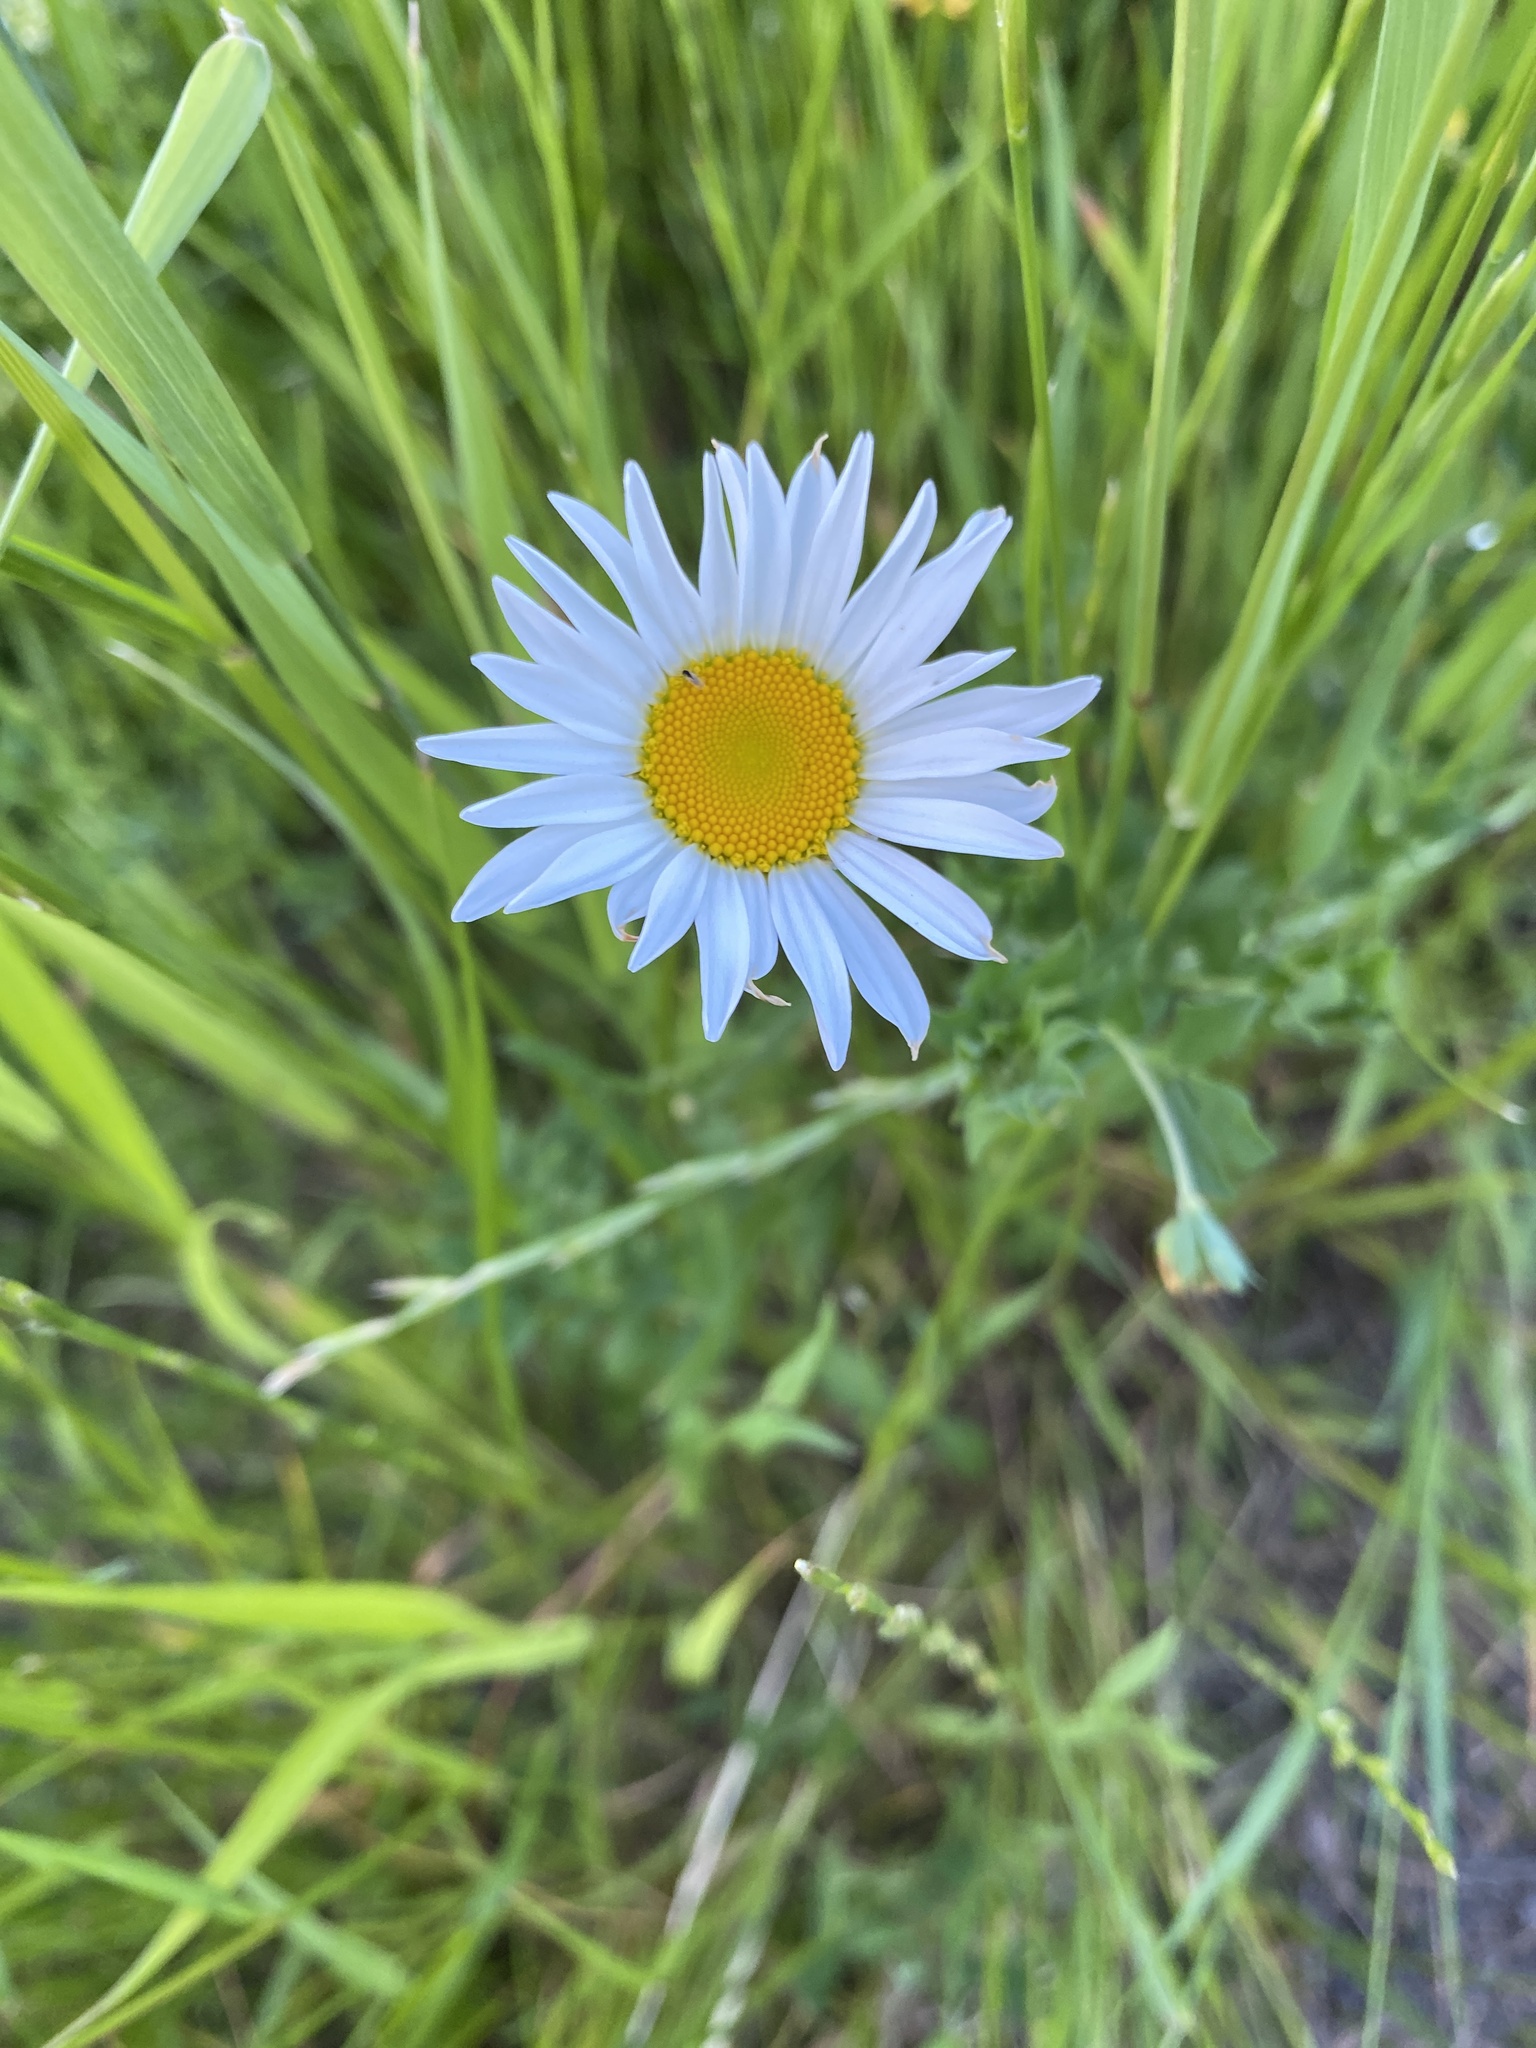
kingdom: Plantae
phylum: Tracheophyta
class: Magnoliopsida
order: Asterales
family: Asteraceae
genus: Leucanthemum
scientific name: Leucanthemum vulgare
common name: Oxeye daisy
